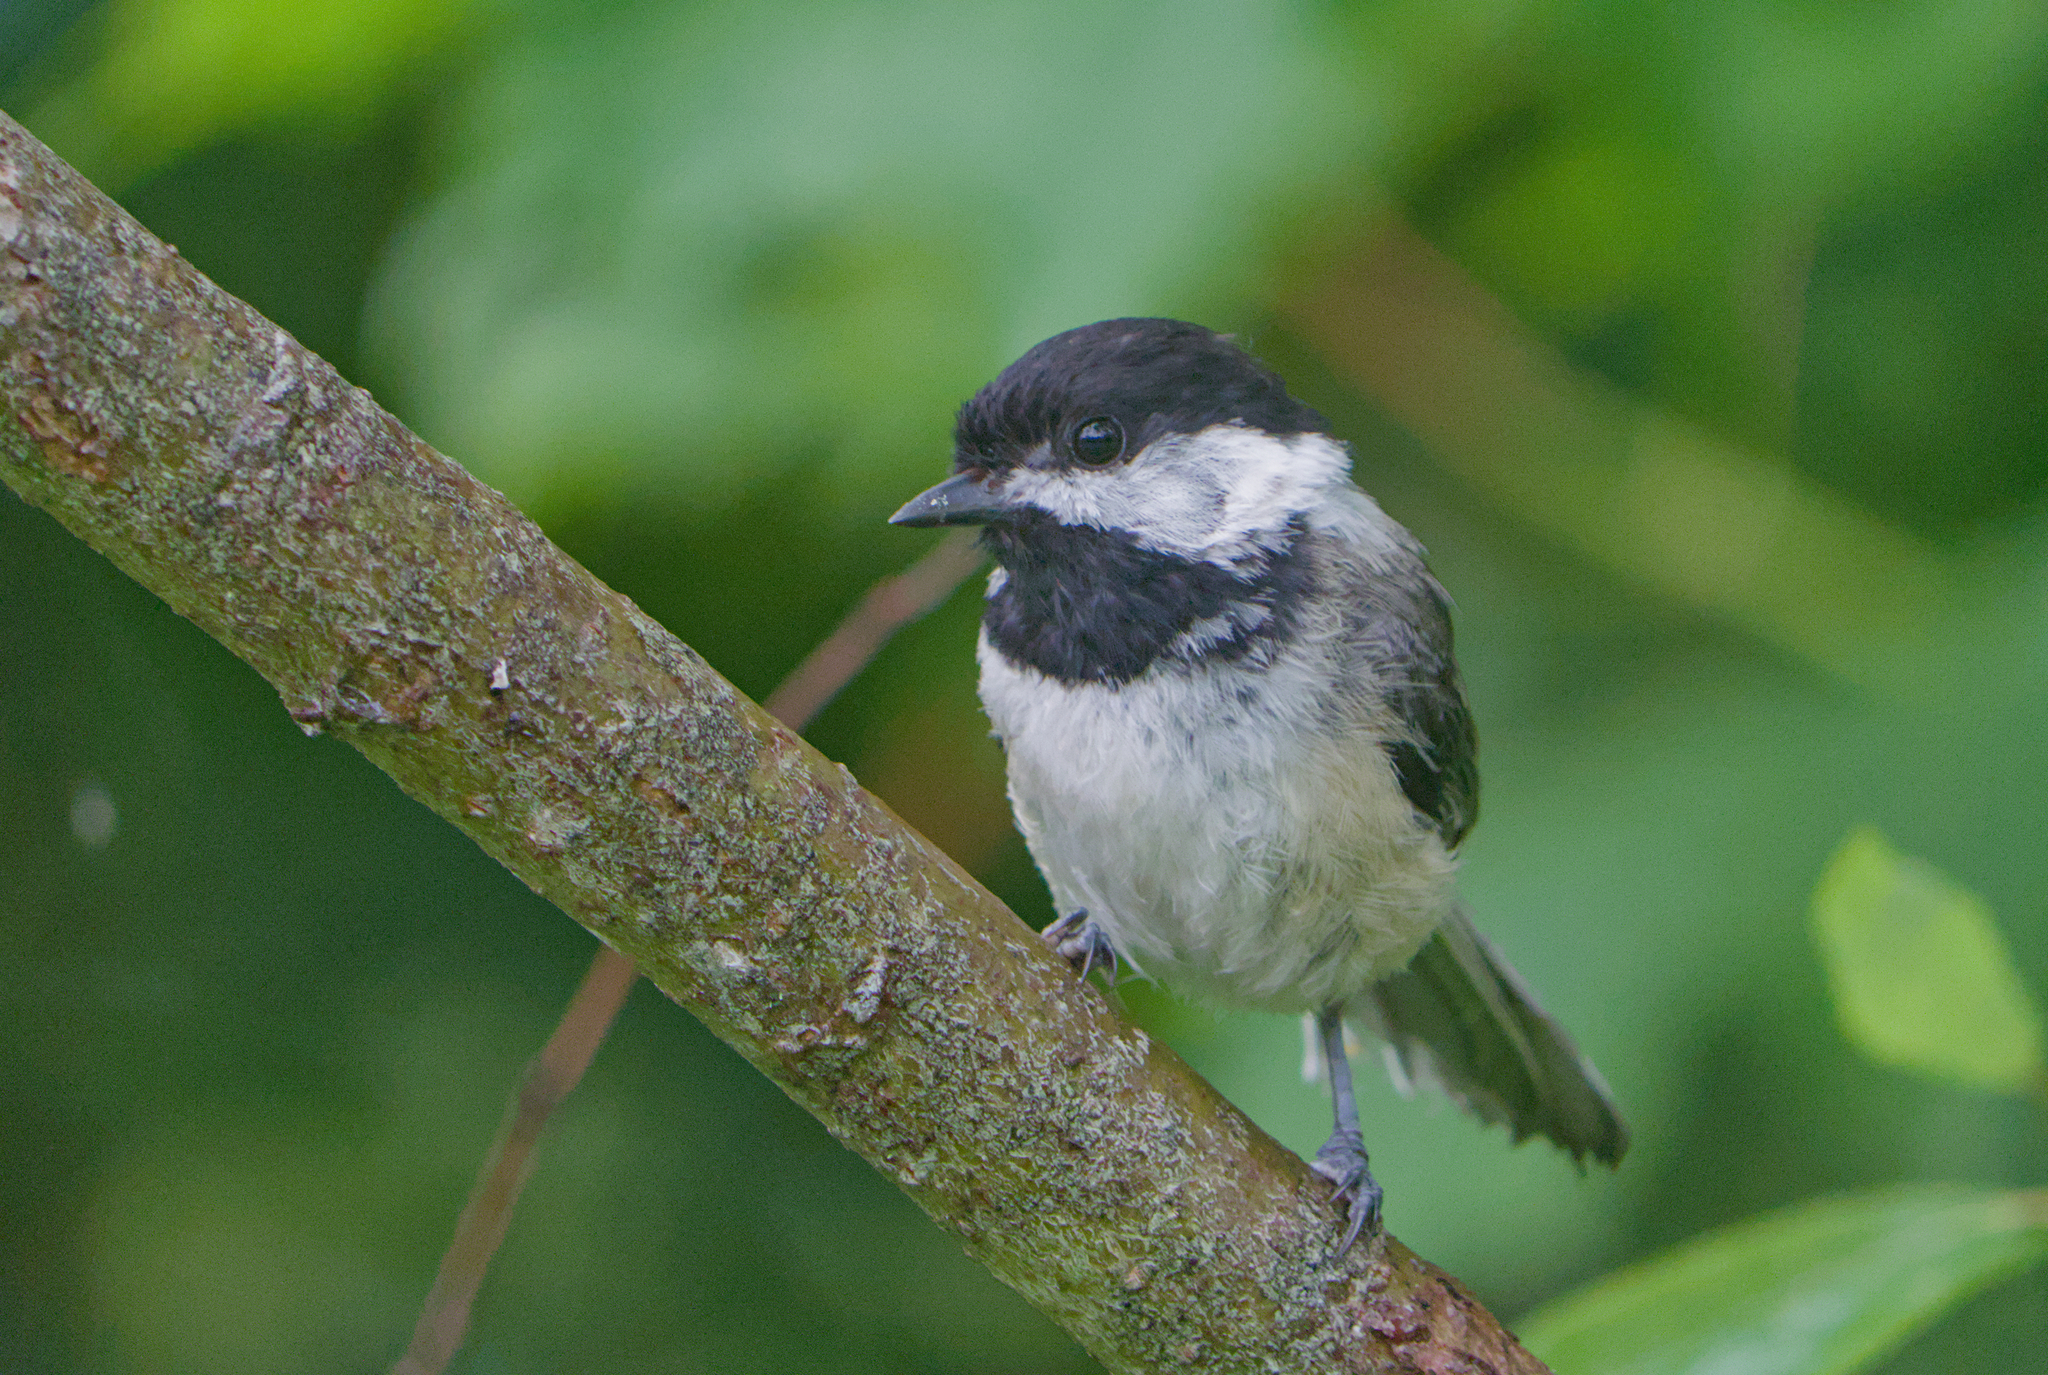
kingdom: Animalia
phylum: Chordata
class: Aves
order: Passeriformes
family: Paridae
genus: Poecile
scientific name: Poecile atricapillus
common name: Black-capped chickadee
